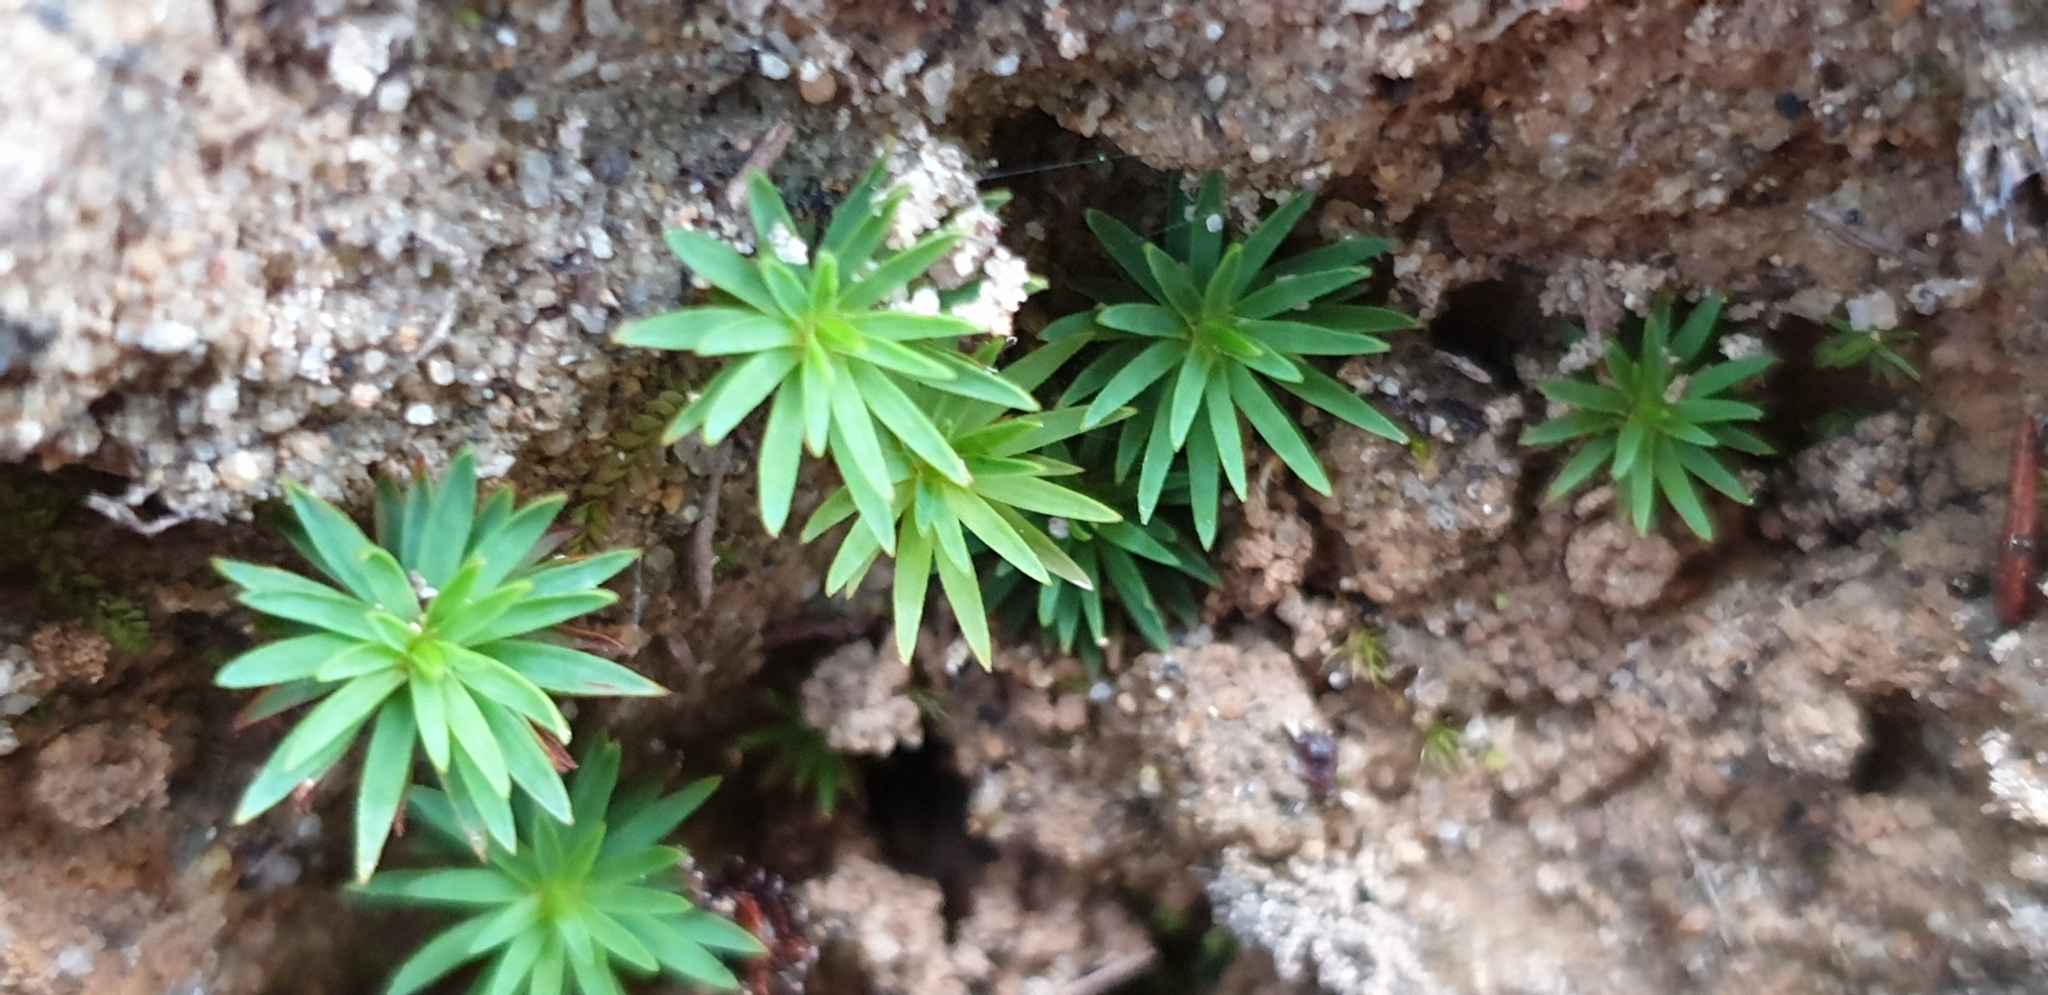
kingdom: Plantae
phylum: Bryophyta
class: Polytrichopsida
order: Polytrichales
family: Polytrichaceae
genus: Dawsonia
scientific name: Dawsonia longiseta
